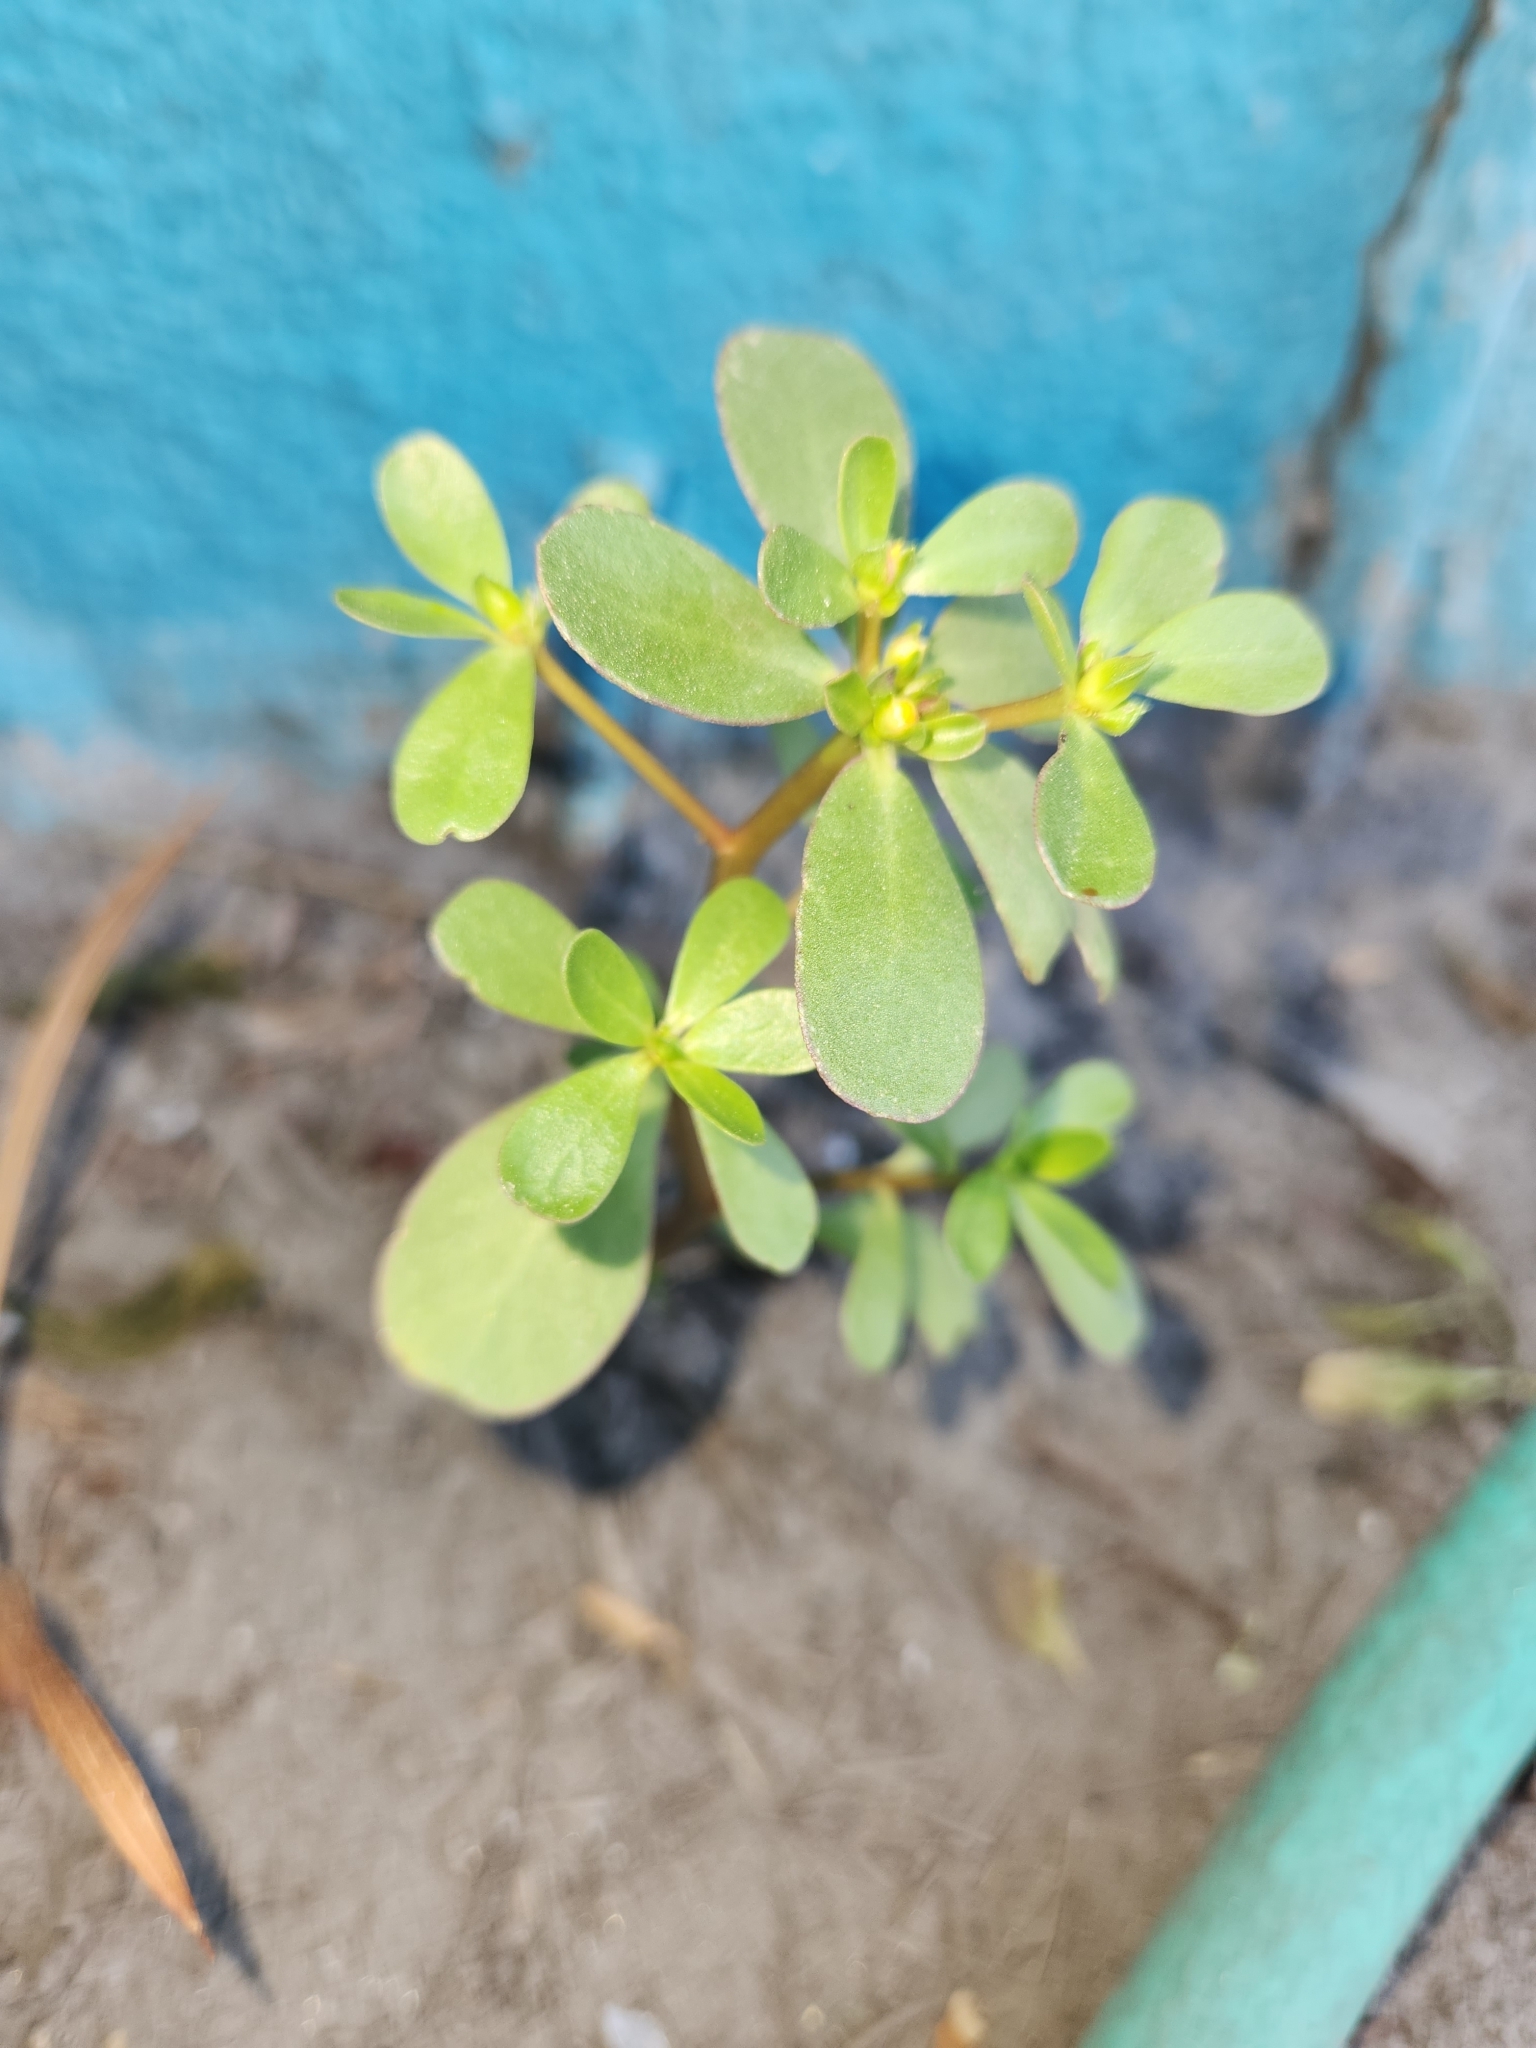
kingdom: Plantae
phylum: Tracheophyta
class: Magnoliopsida
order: Caryophyllales
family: Portulacaceae
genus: Portulaca
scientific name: Portulaca oleracea
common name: Common purslane
